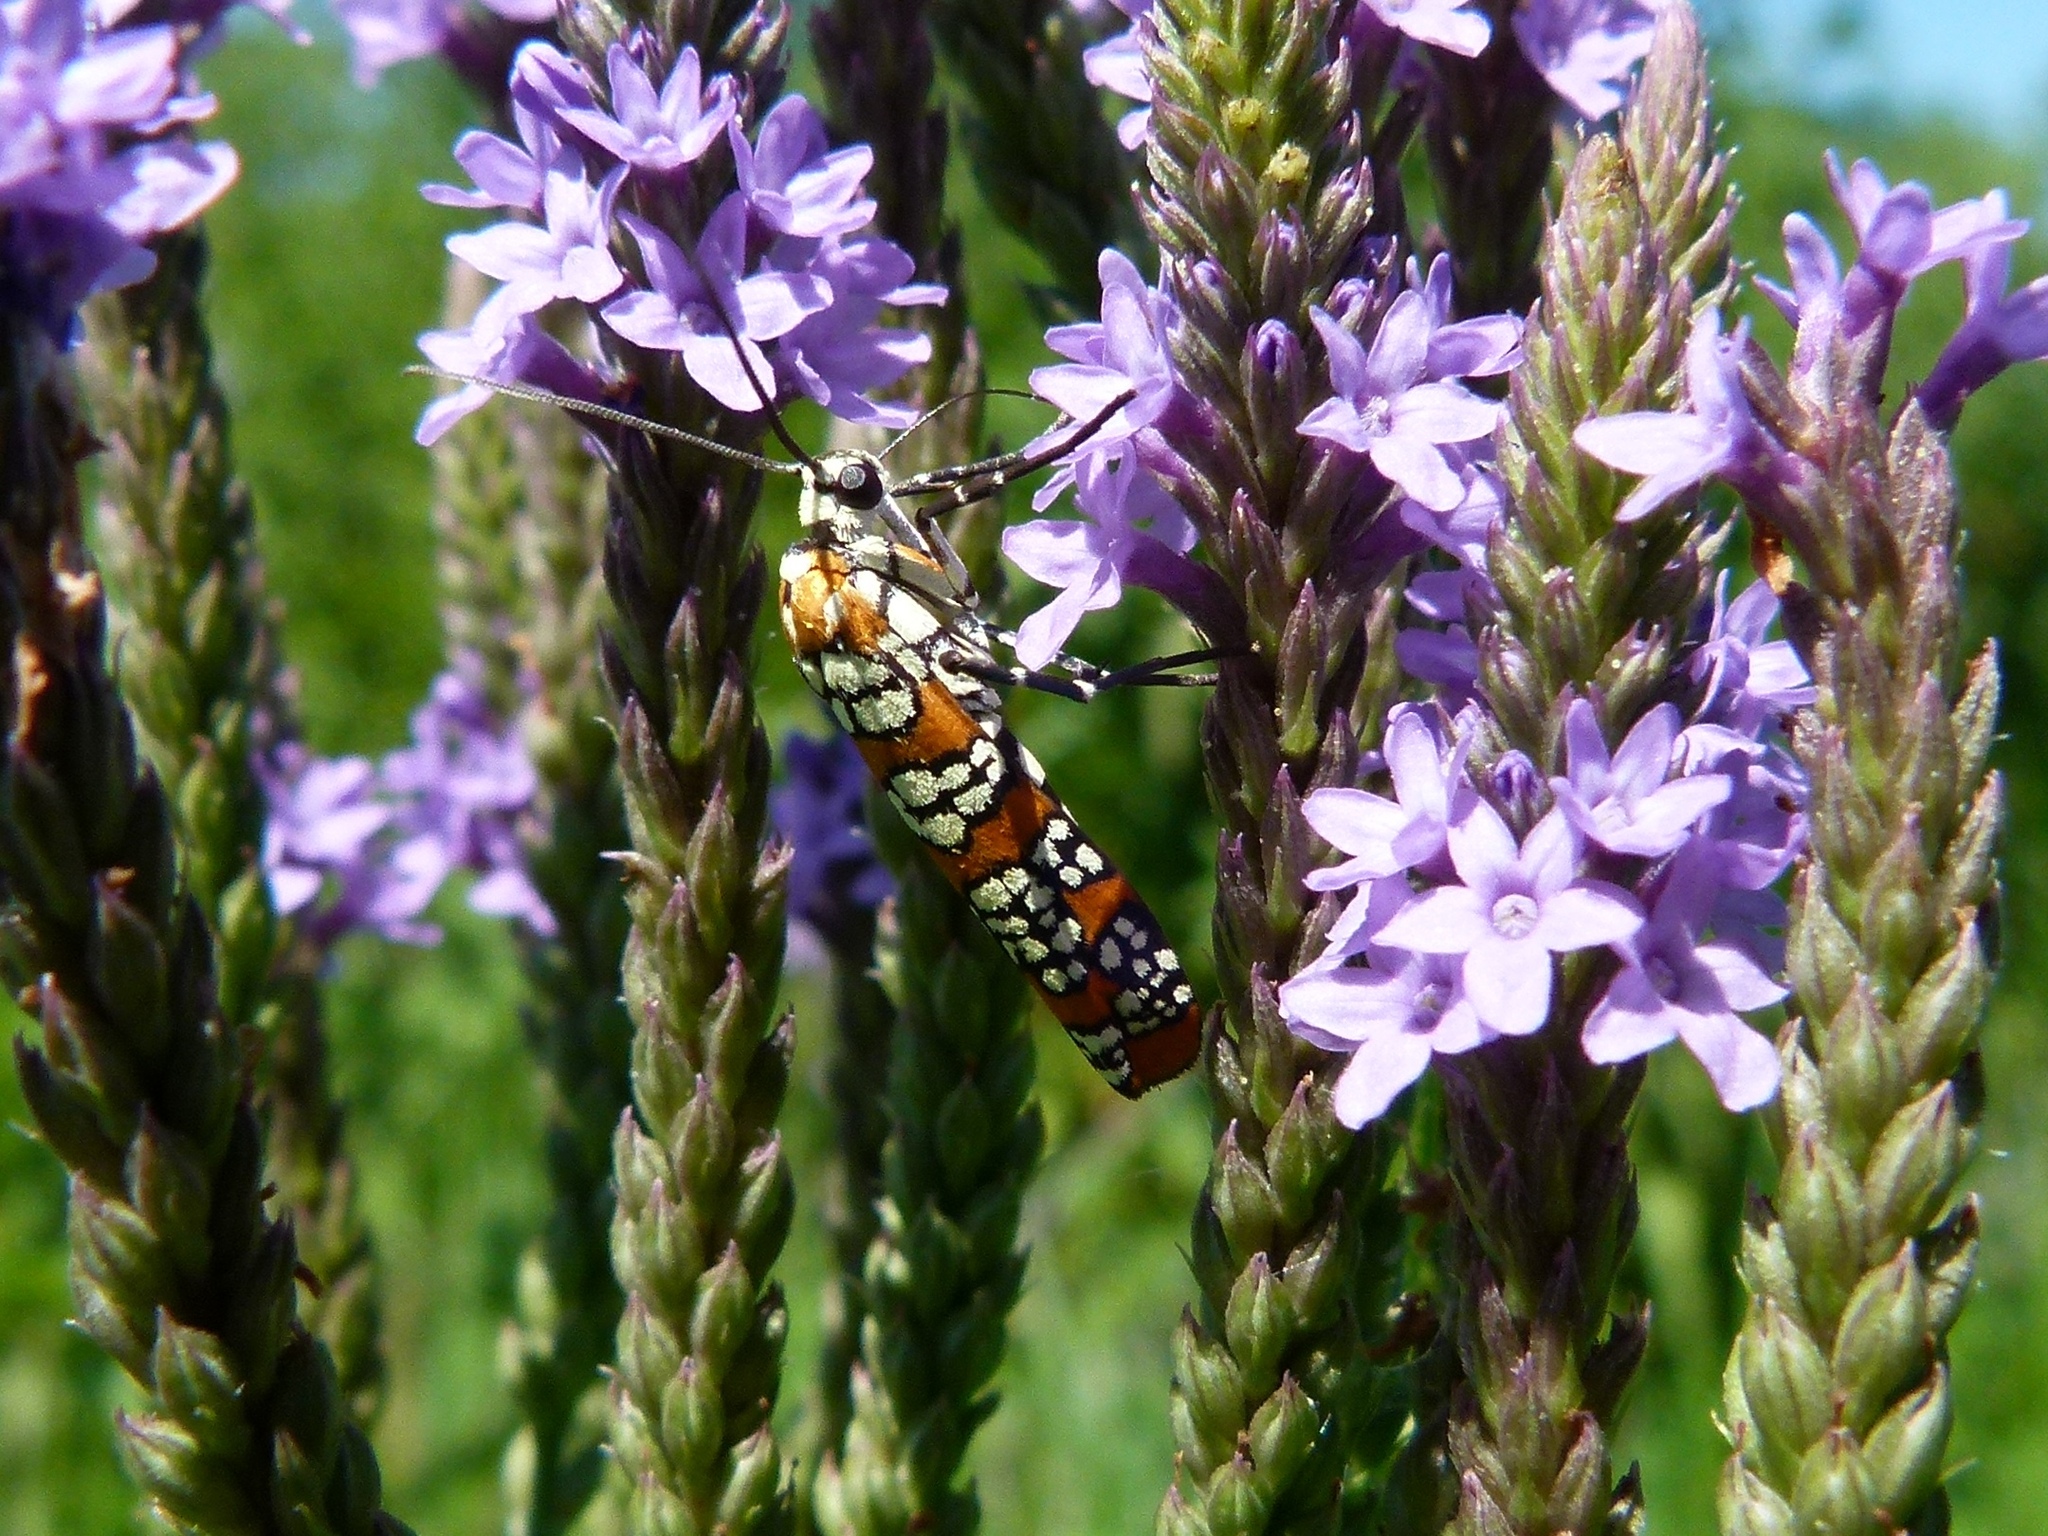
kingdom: Animalia
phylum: Arthropoda
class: Insecta
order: Lepidoptera
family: Attevidae
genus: Atteva
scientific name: Atteva punctella
